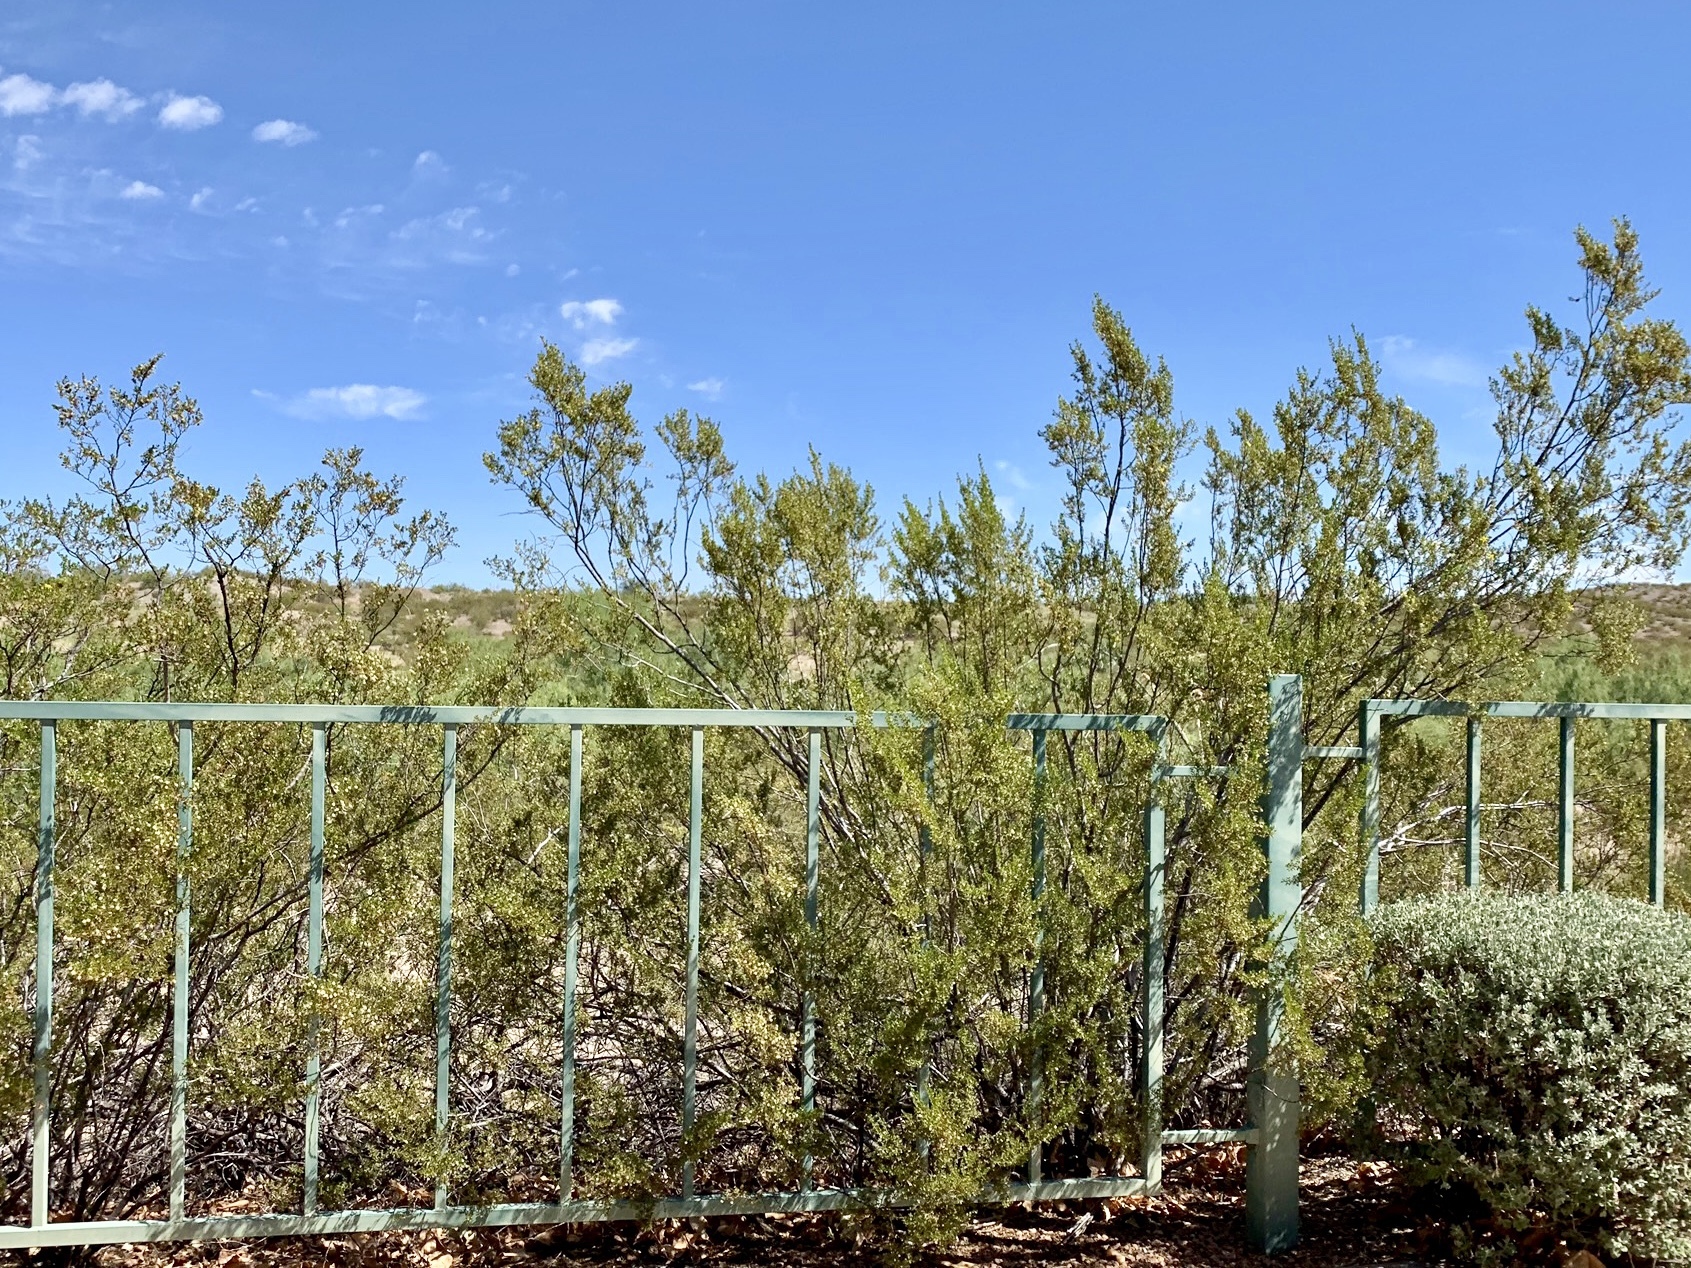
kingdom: Plantae
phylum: Tracheophyta
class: Magnoliopsida
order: Zygophyllales
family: Zygophyllaceae
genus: Larrea
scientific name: Larrea tridentata
